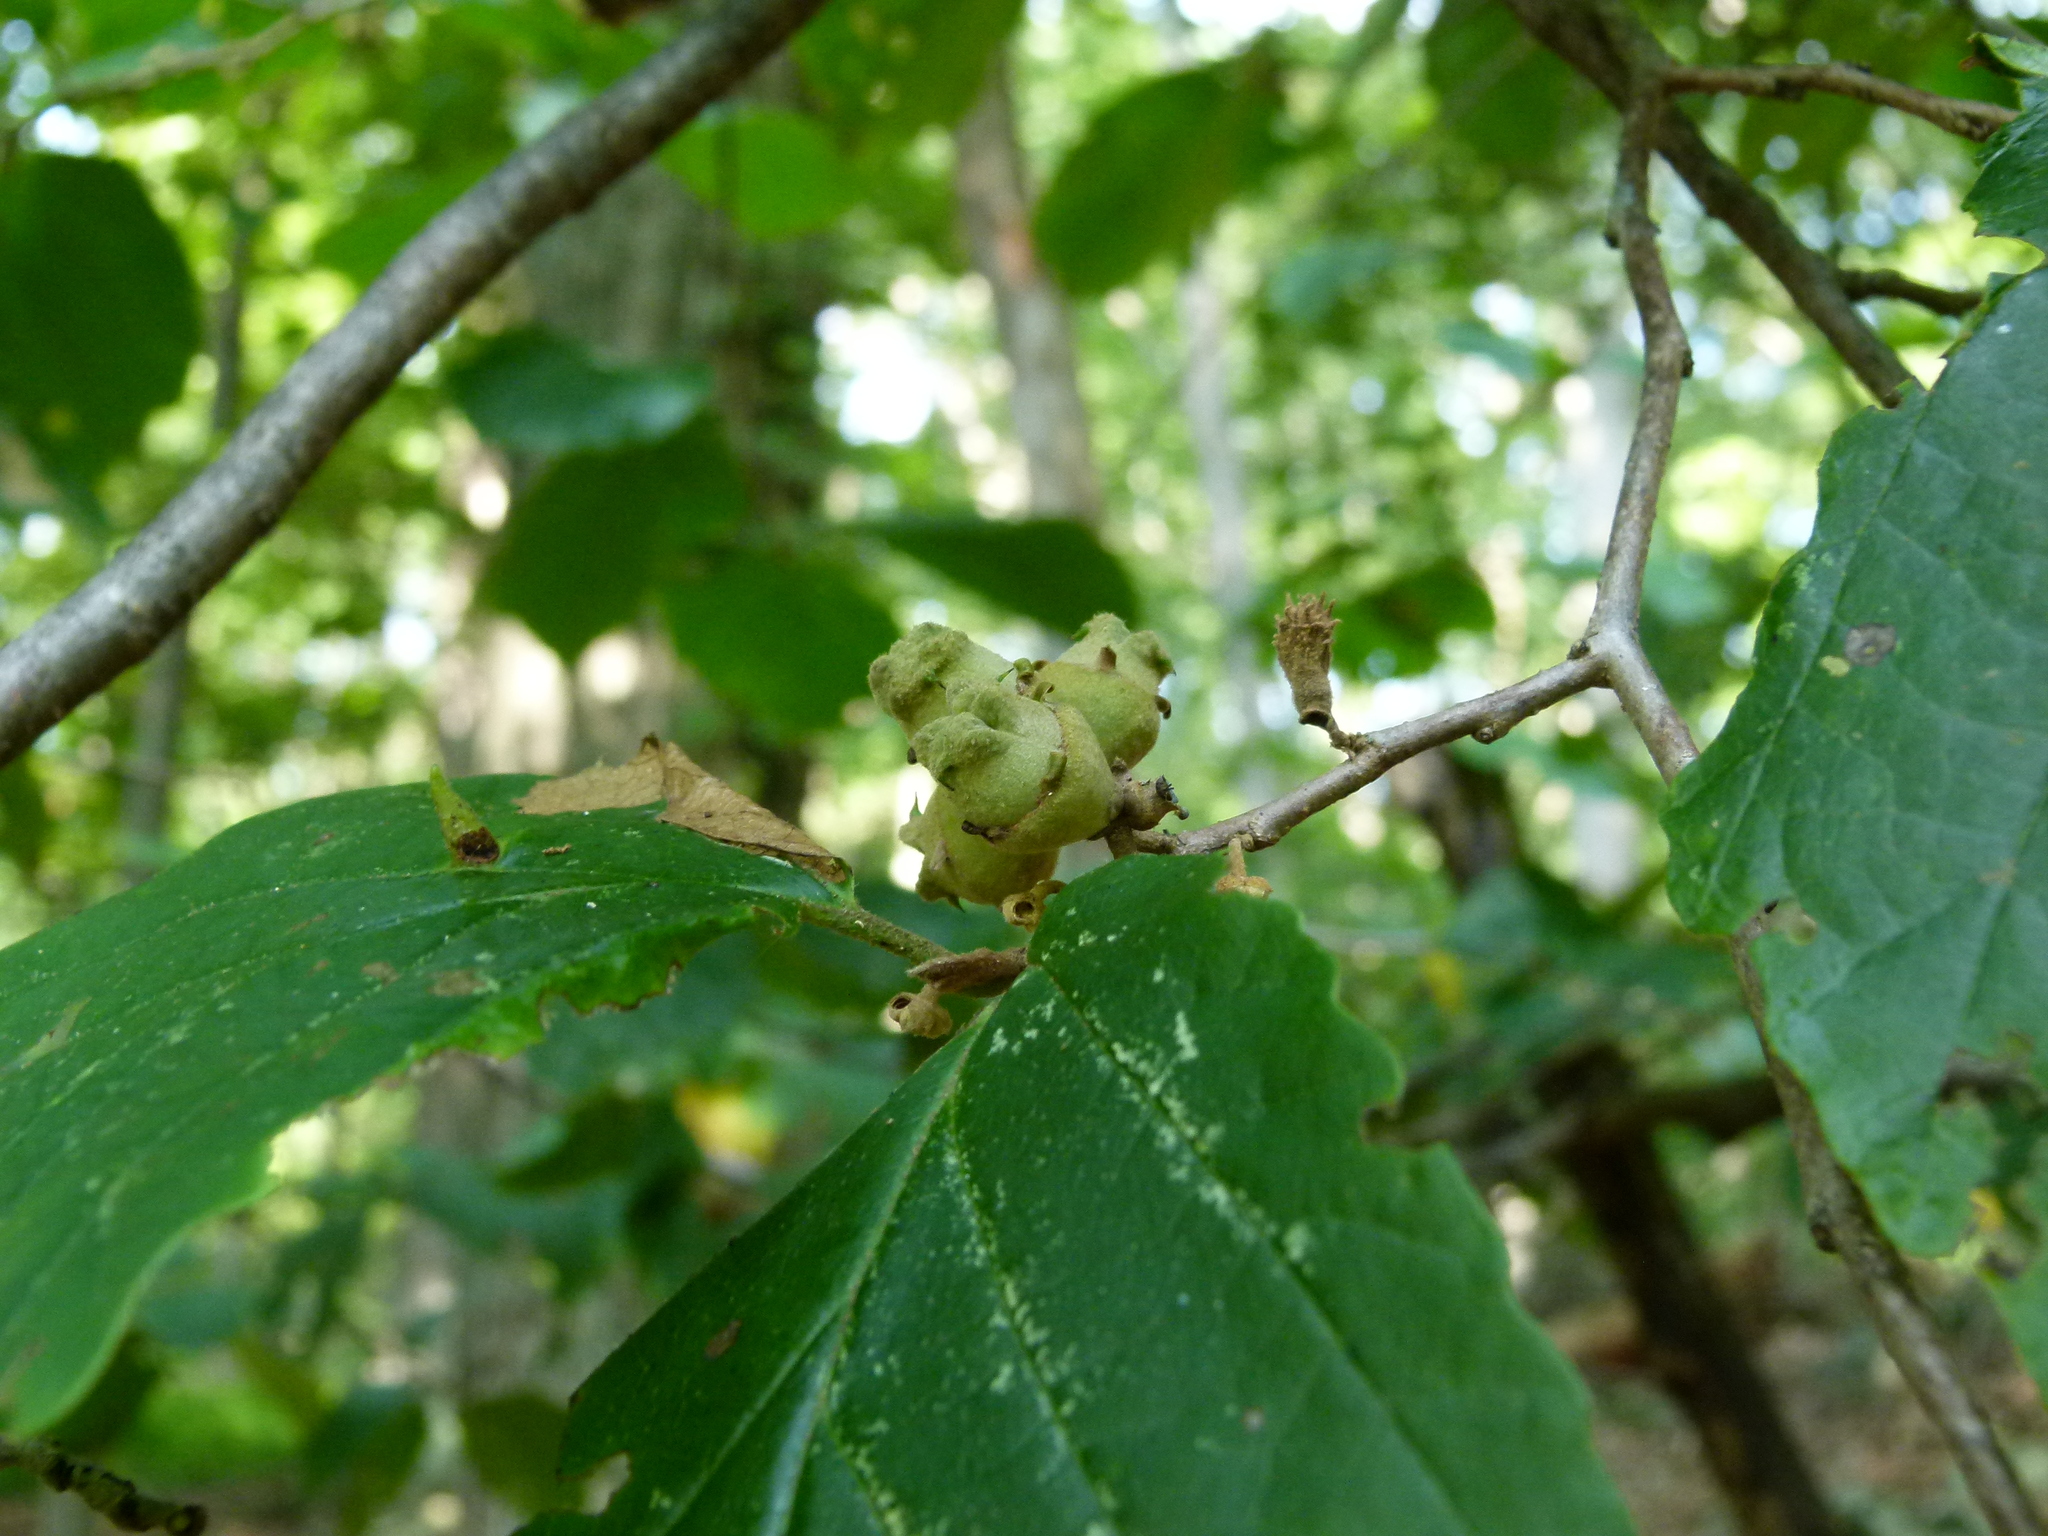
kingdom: Plantae
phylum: Tracheophyta
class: Magnoliopsida
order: Saxifragales
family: Hamamelidaceae
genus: Hamamelis
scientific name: Hamamelis virginiana
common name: Witch-hazel
